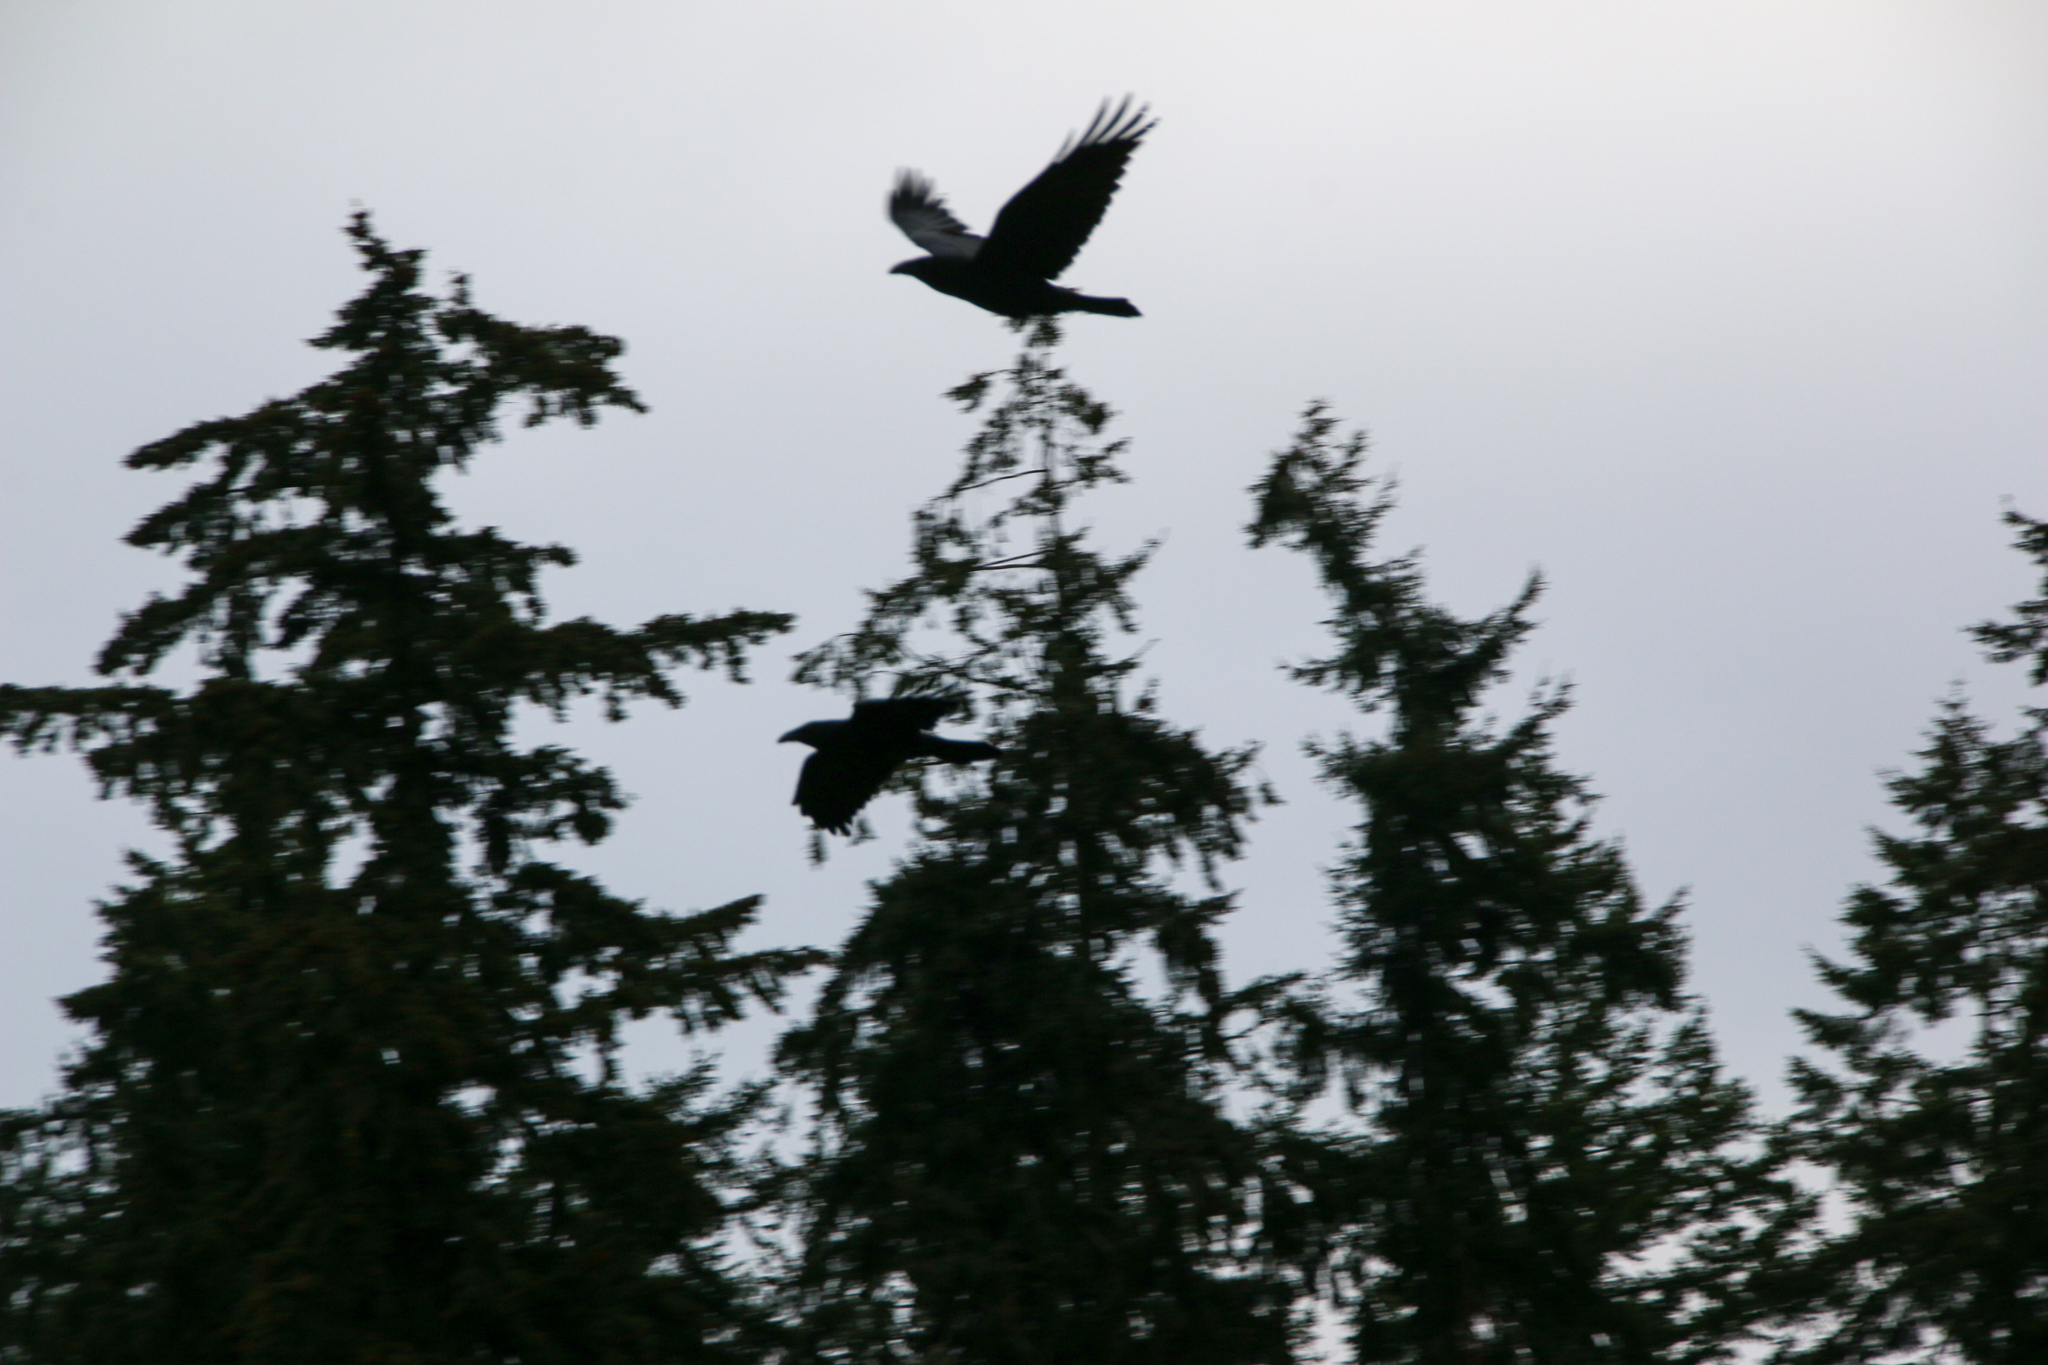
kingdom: Animalia
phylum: Chordata
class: Aves
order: Passeriformes
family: Corvidae
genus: Corvus
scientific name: Corvus corax
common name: Common raven
